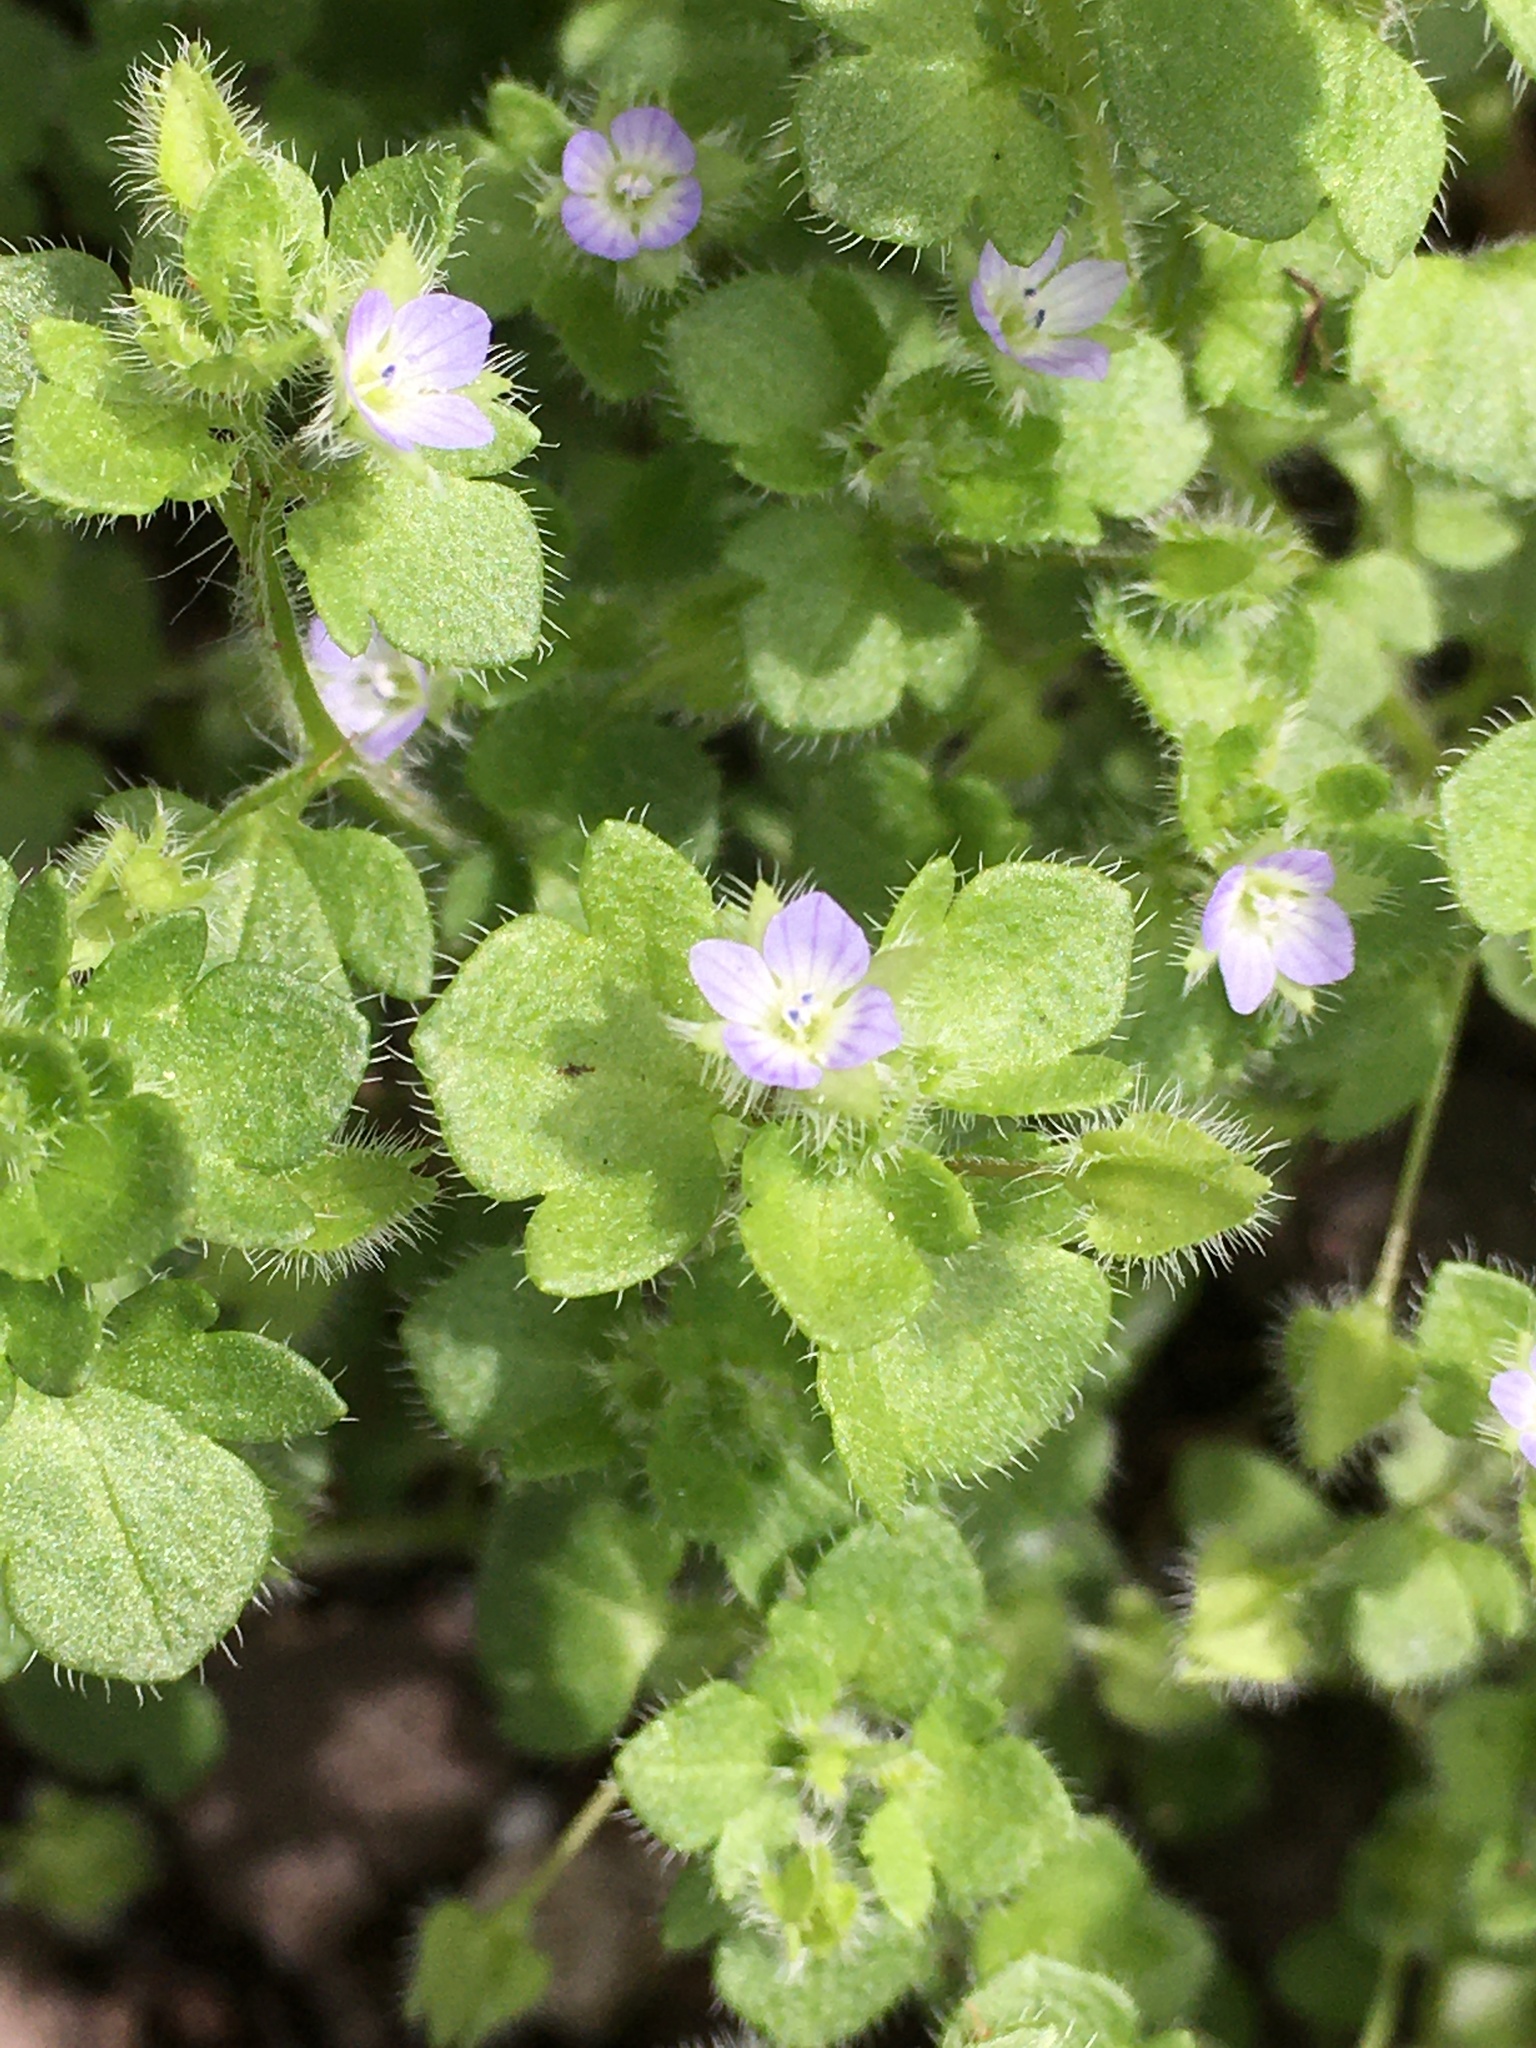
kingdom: Plantae
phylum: Tracheophyta
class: Magnoliopsida
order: Lamiales
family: Plantaginaceae
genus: Veronica
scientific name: Veronica hederifolia
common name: Ivy-leaved speedwell
